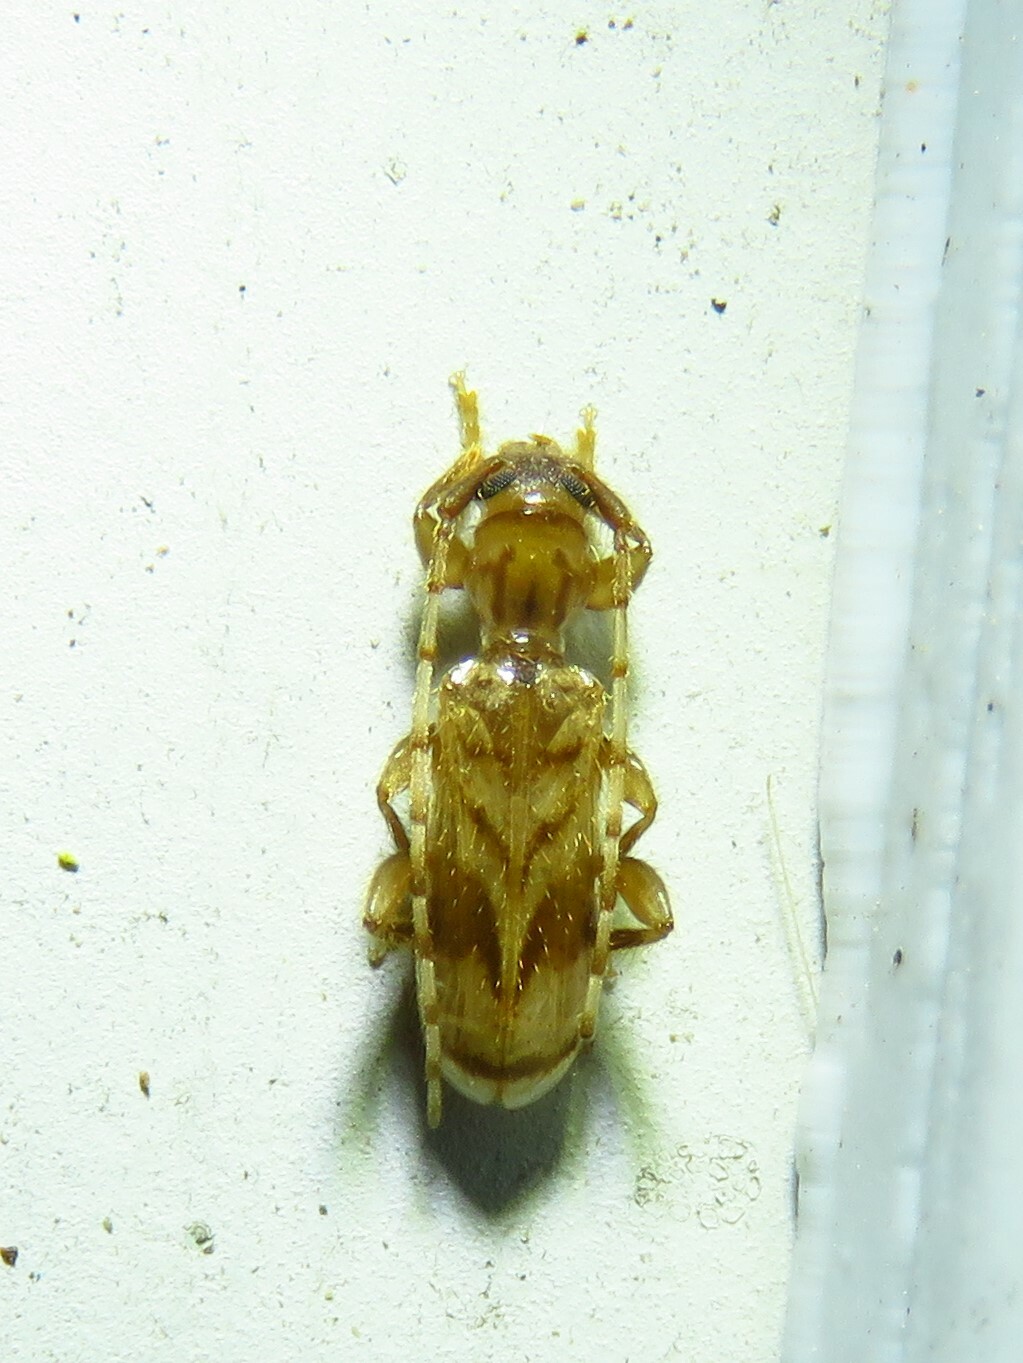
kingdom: Animalia
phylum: Arthropoda
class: Insecta
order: Coleoptera
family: Cerambycidae
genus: Obrium
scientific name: Obrium maculatum
